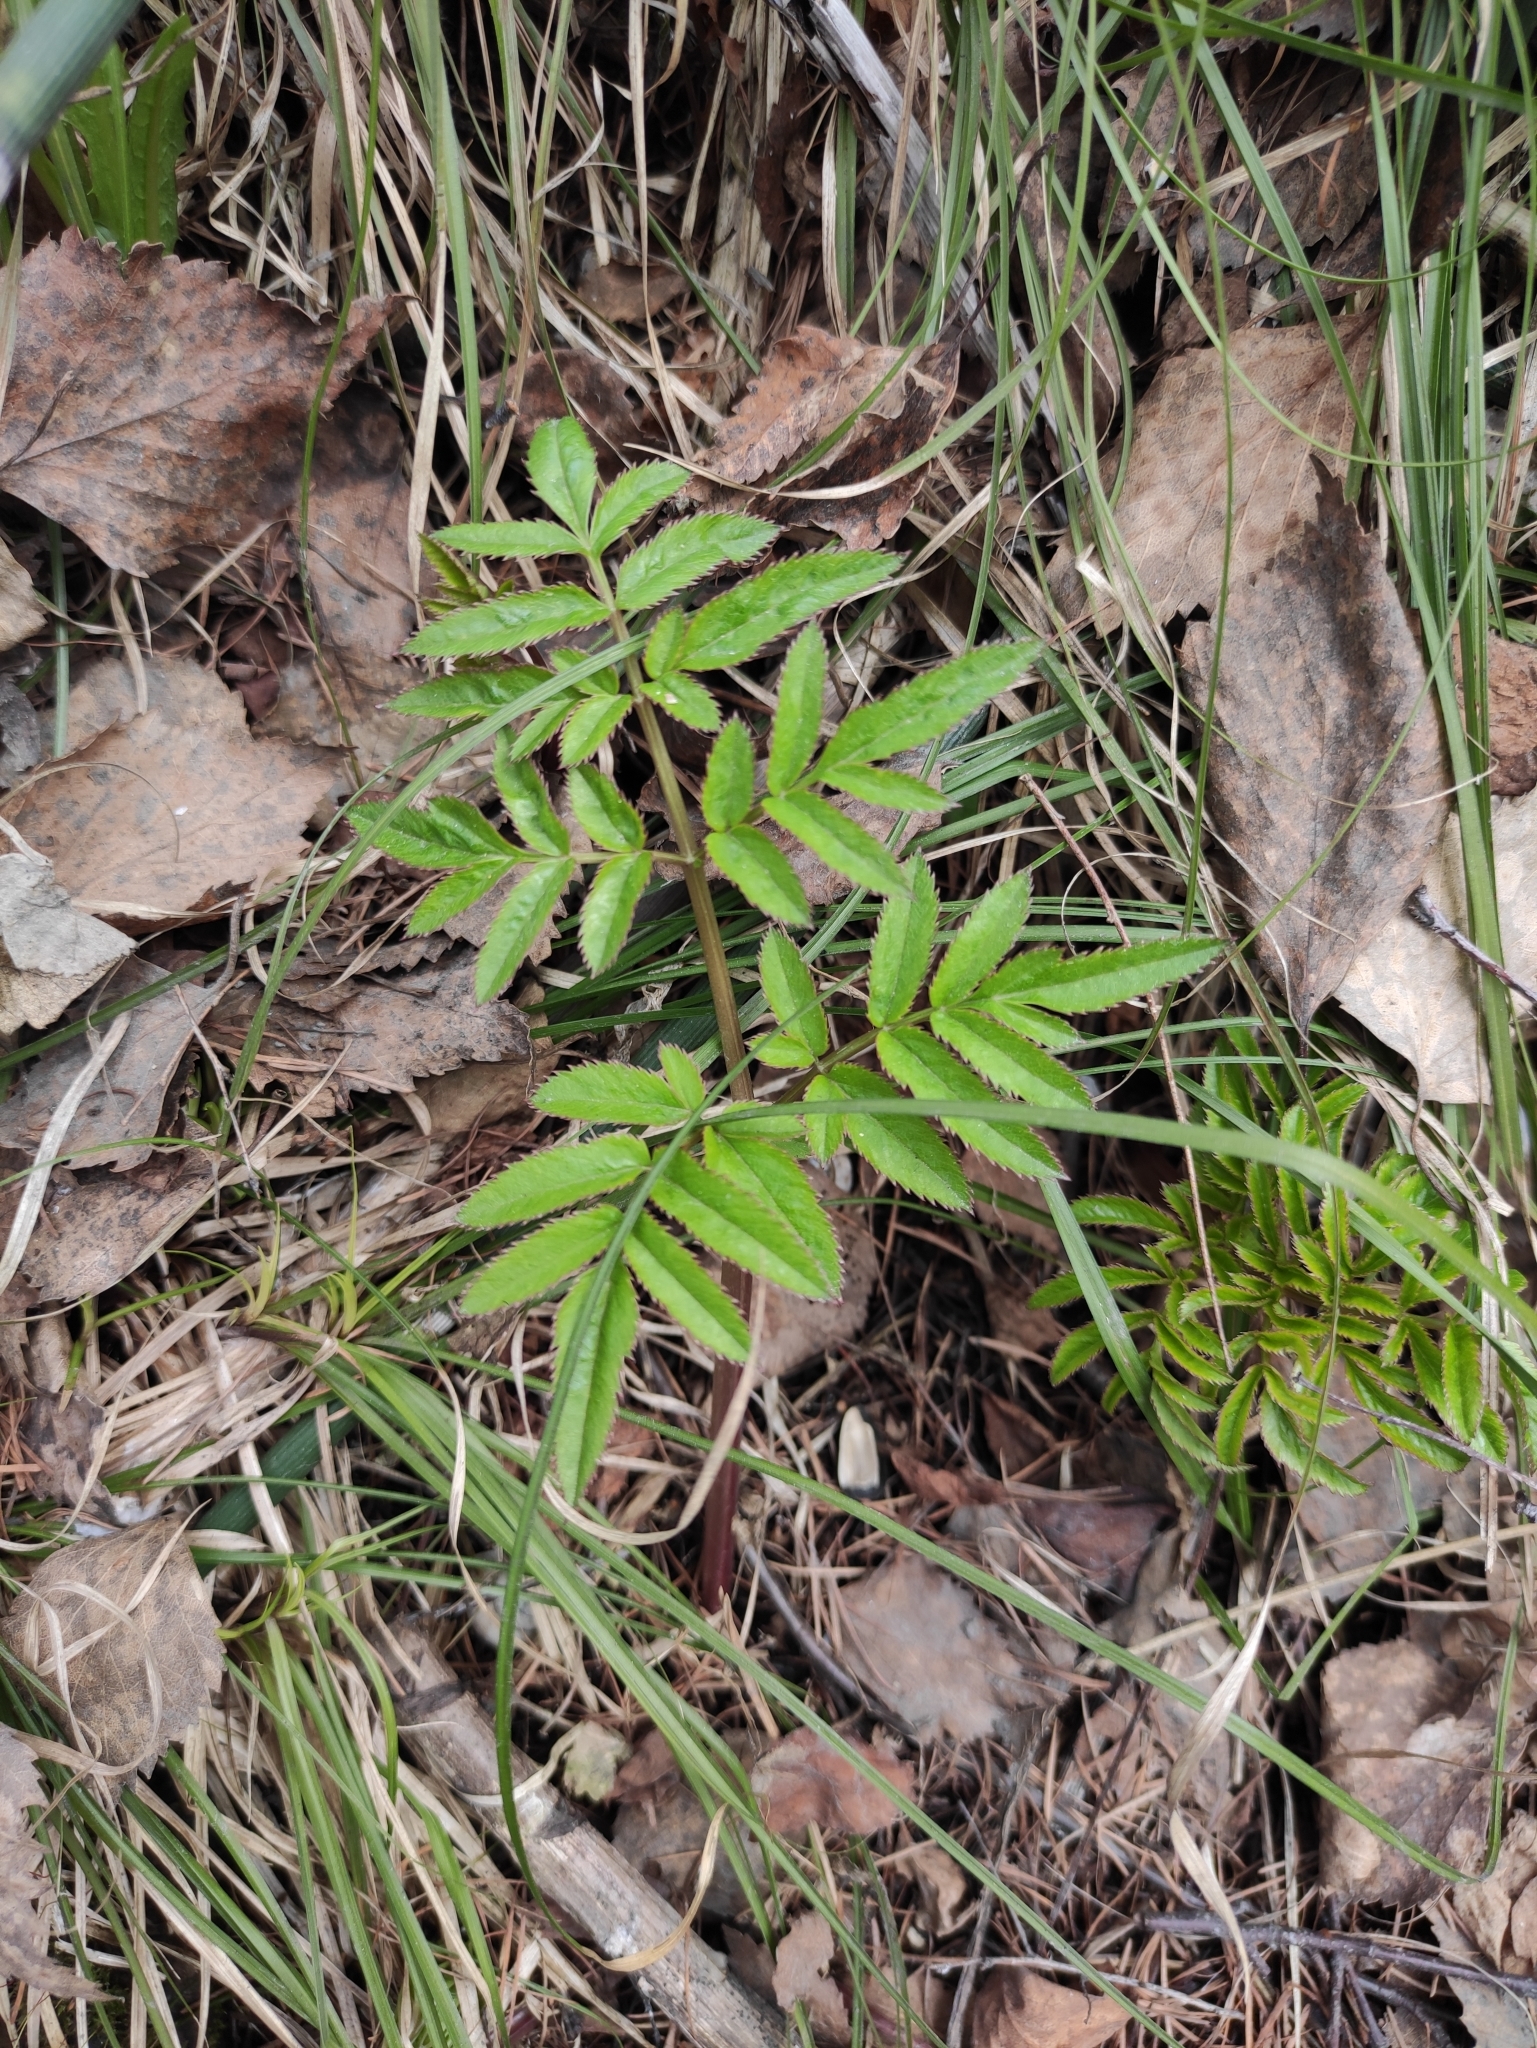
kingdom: Plantae
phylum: Tracheophyta
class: Magnoliopsida
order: Apiales
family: Apiaceae
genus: Angelica
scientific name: Angelica sylvestris
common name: Wild angelica
